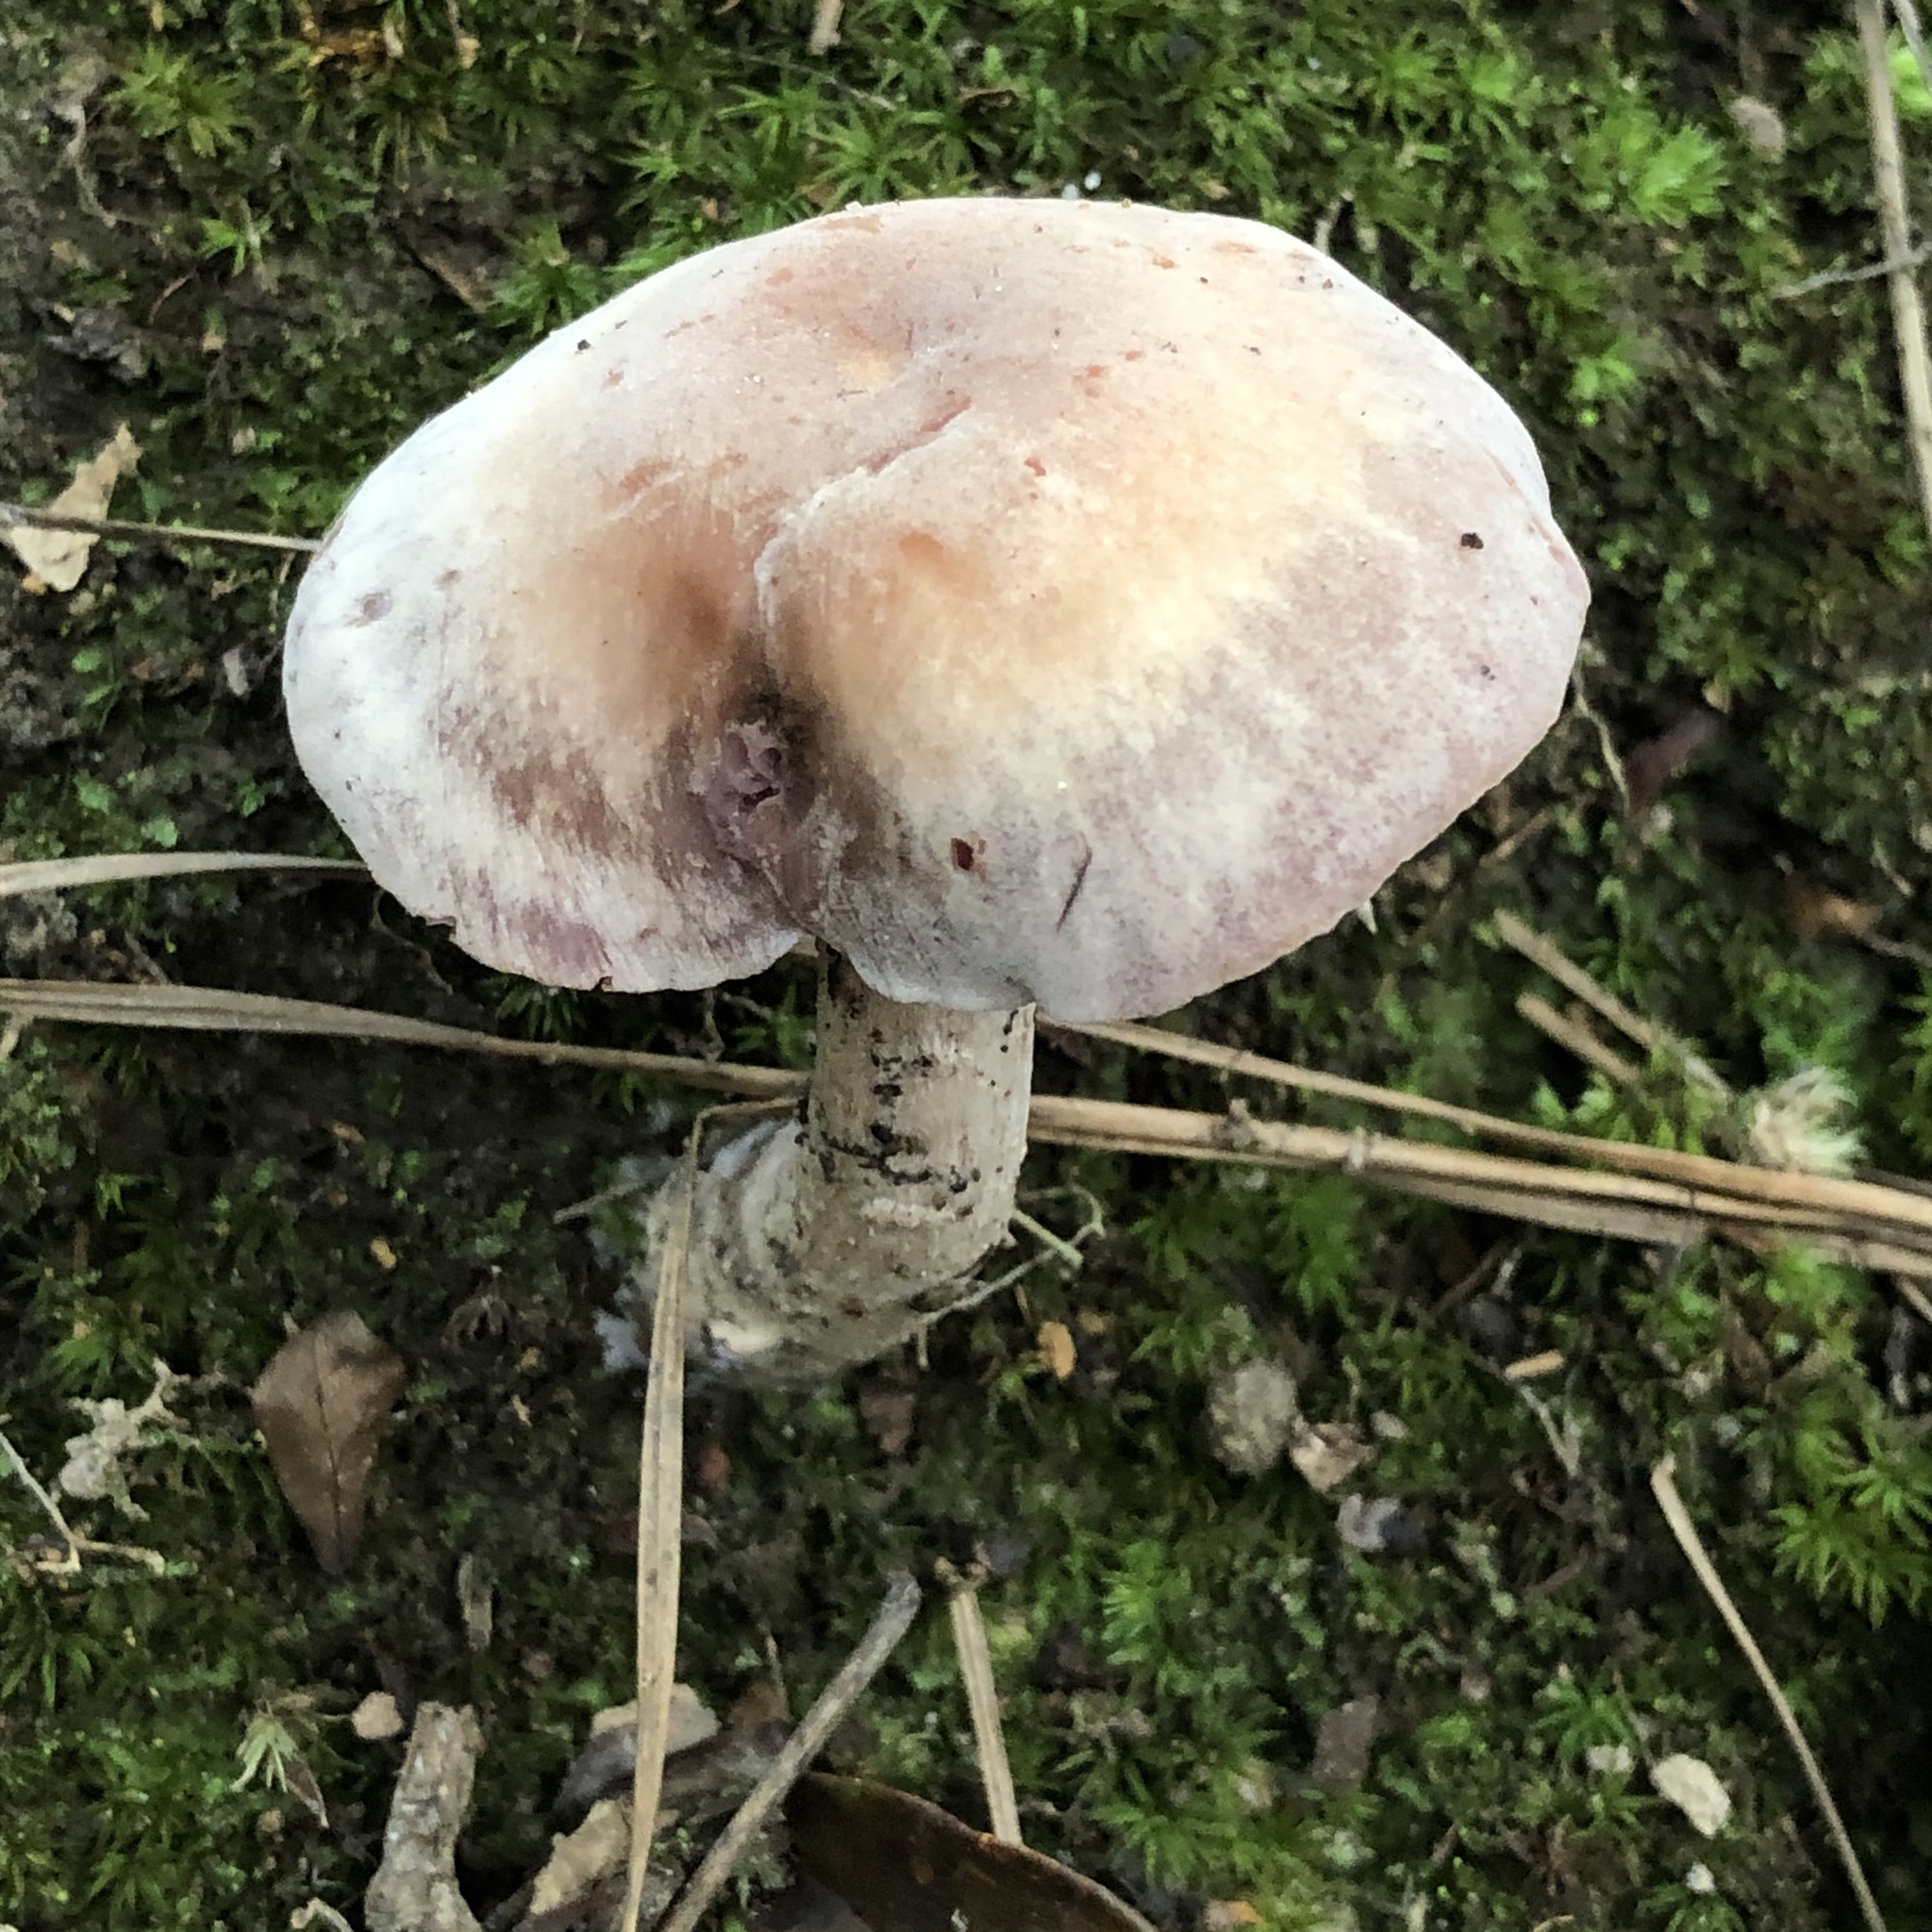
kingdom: Fungi
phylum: Basidiomycota
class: Agaricomycetes
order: Agaricales
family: Hydnangiaceae
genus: Laccaria
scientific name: Laccaria ochropurpurea
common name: Purple laccaria
